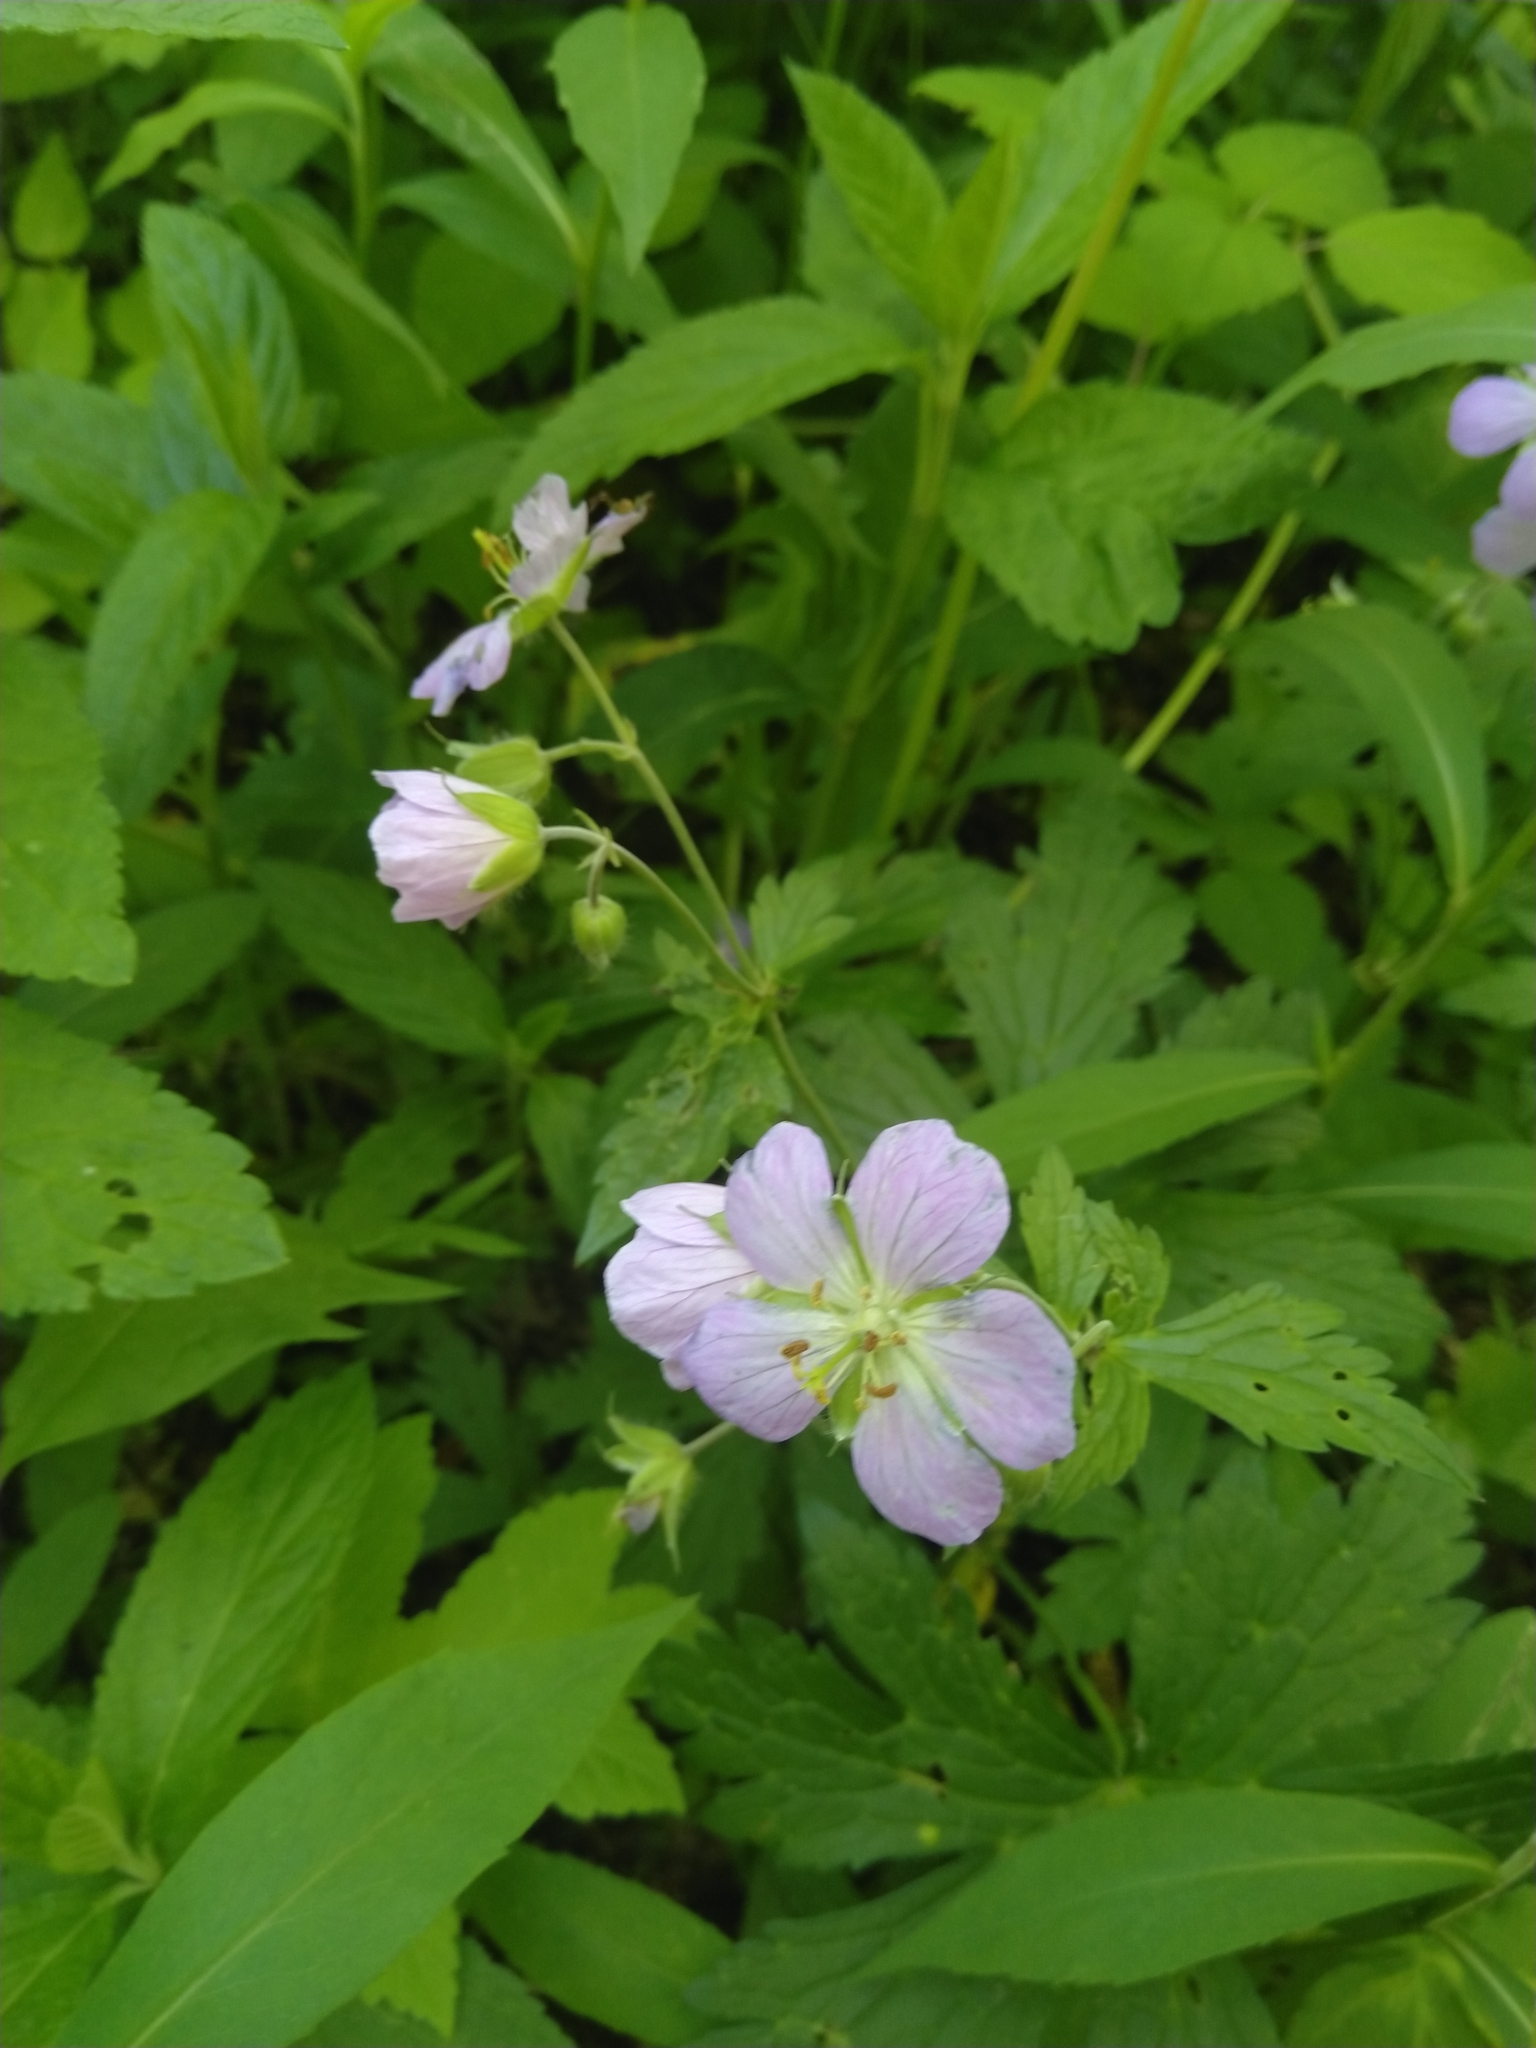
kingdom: Plantae
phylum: Tracheophyta
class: Magnoliopsida
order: Geraniales
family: Geraniaceae
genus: Geranium
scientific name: Geranium maculatum
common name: Spotted geranium
